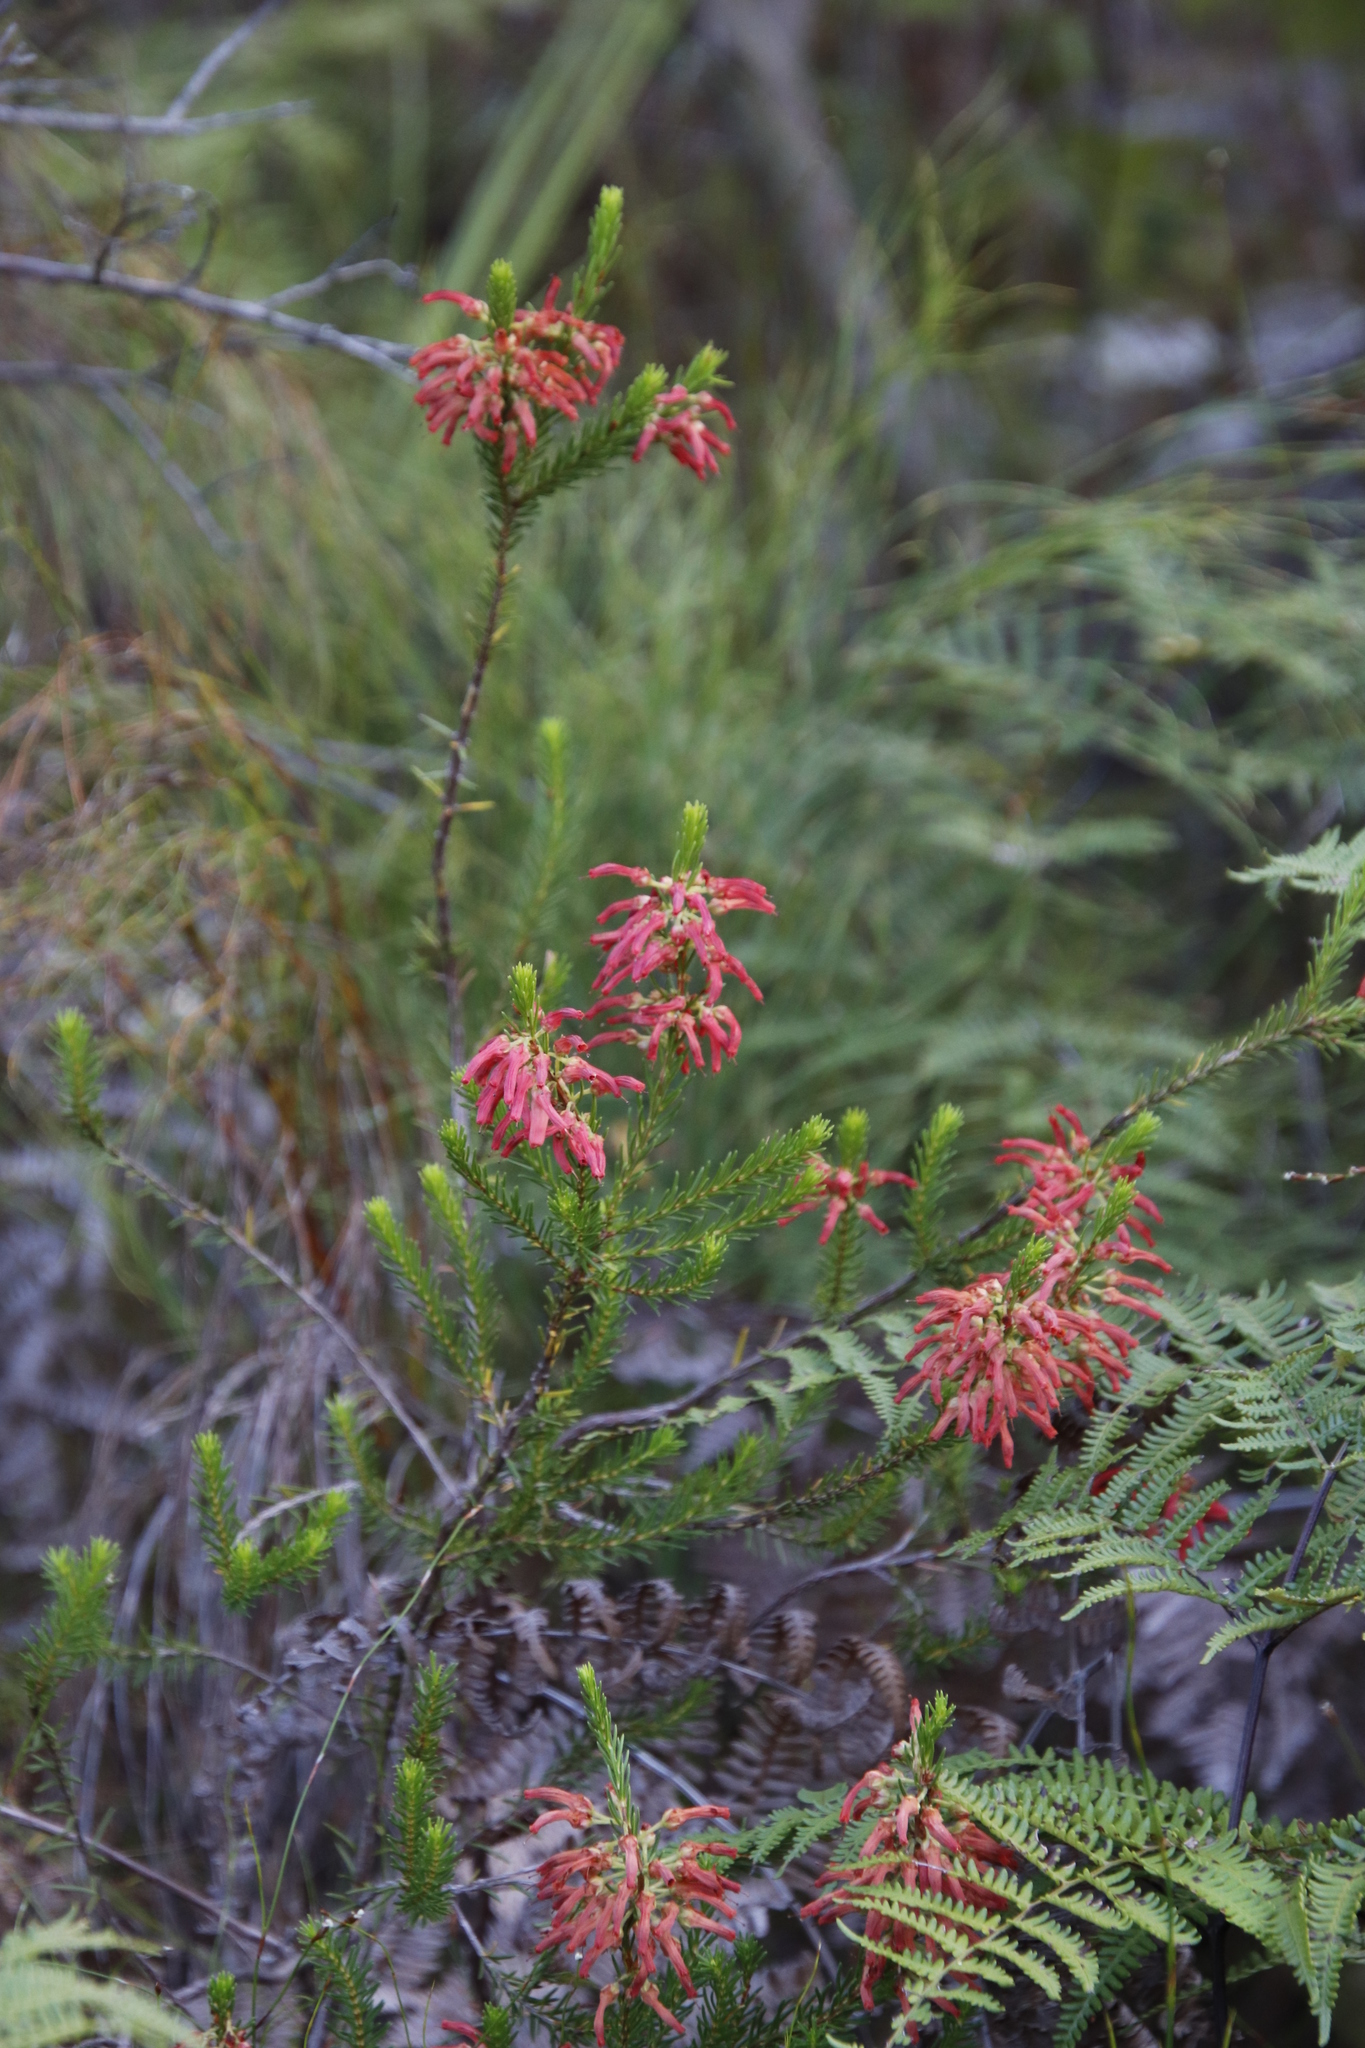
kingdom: Plantae
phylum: Tracheophyta
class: Magnoliopsida
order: Ericales
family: Ericaceae
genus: Erica
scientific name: Erica mammosa
